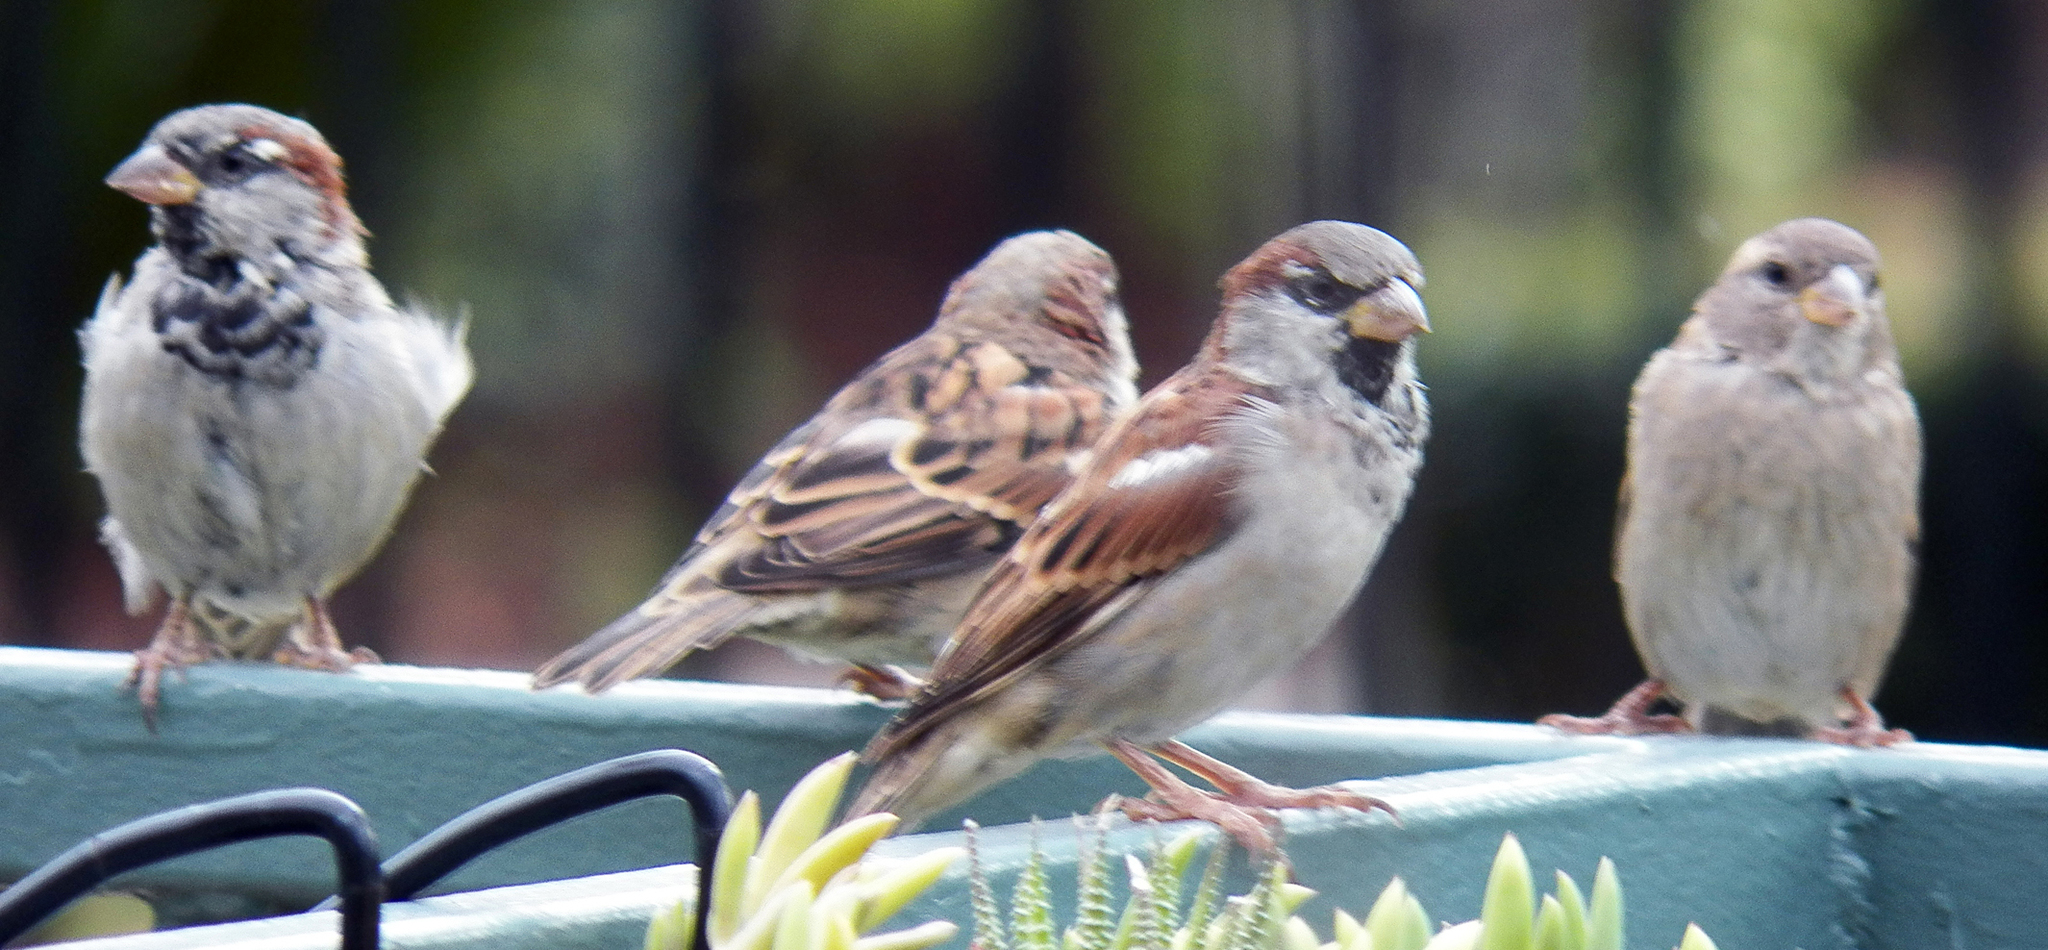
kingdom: Animalia
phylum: Chordata
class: Aves
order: Passeriformes
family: Passeridae
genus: Passer
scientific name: Passer domesticus
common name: House sparrow
